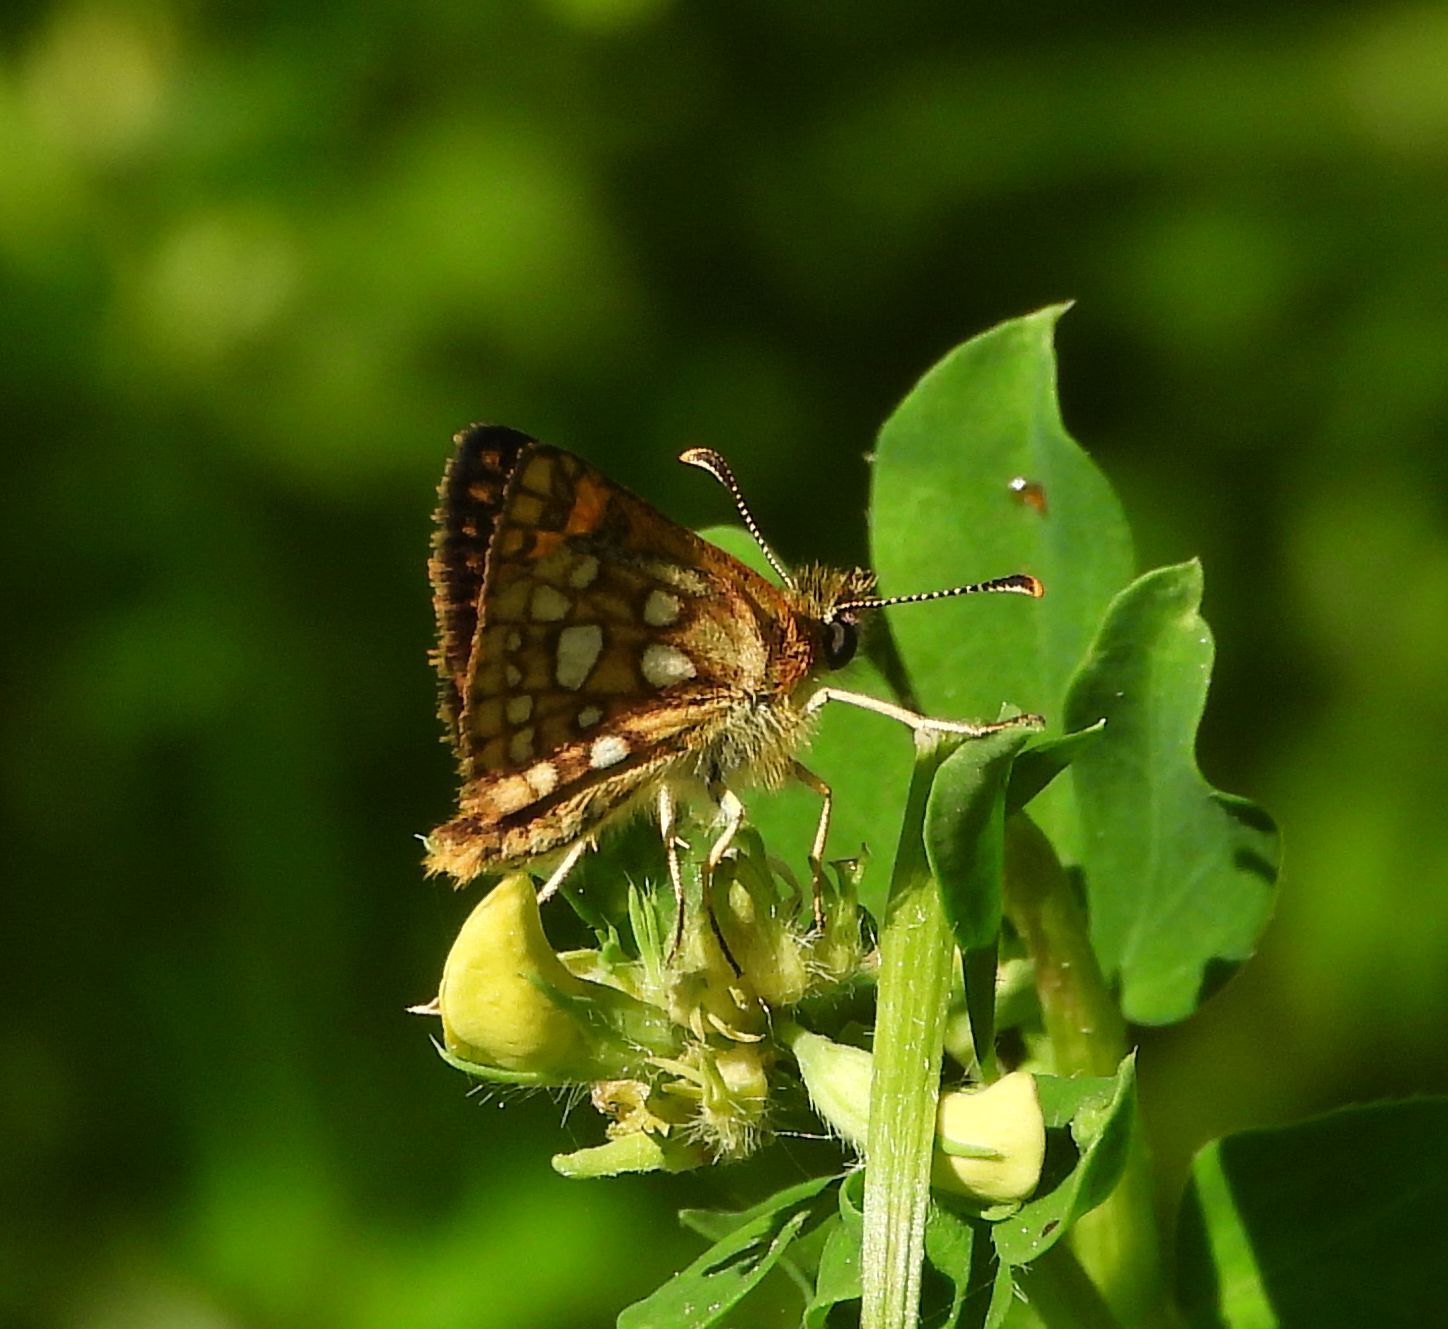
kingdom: Animalia
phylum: Arthropoda
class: Insecta
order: Lepidoptera
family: Hesperiidae
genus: Carterocephalus
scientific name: Carterocephalus mandan
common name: Arctic skipperling
